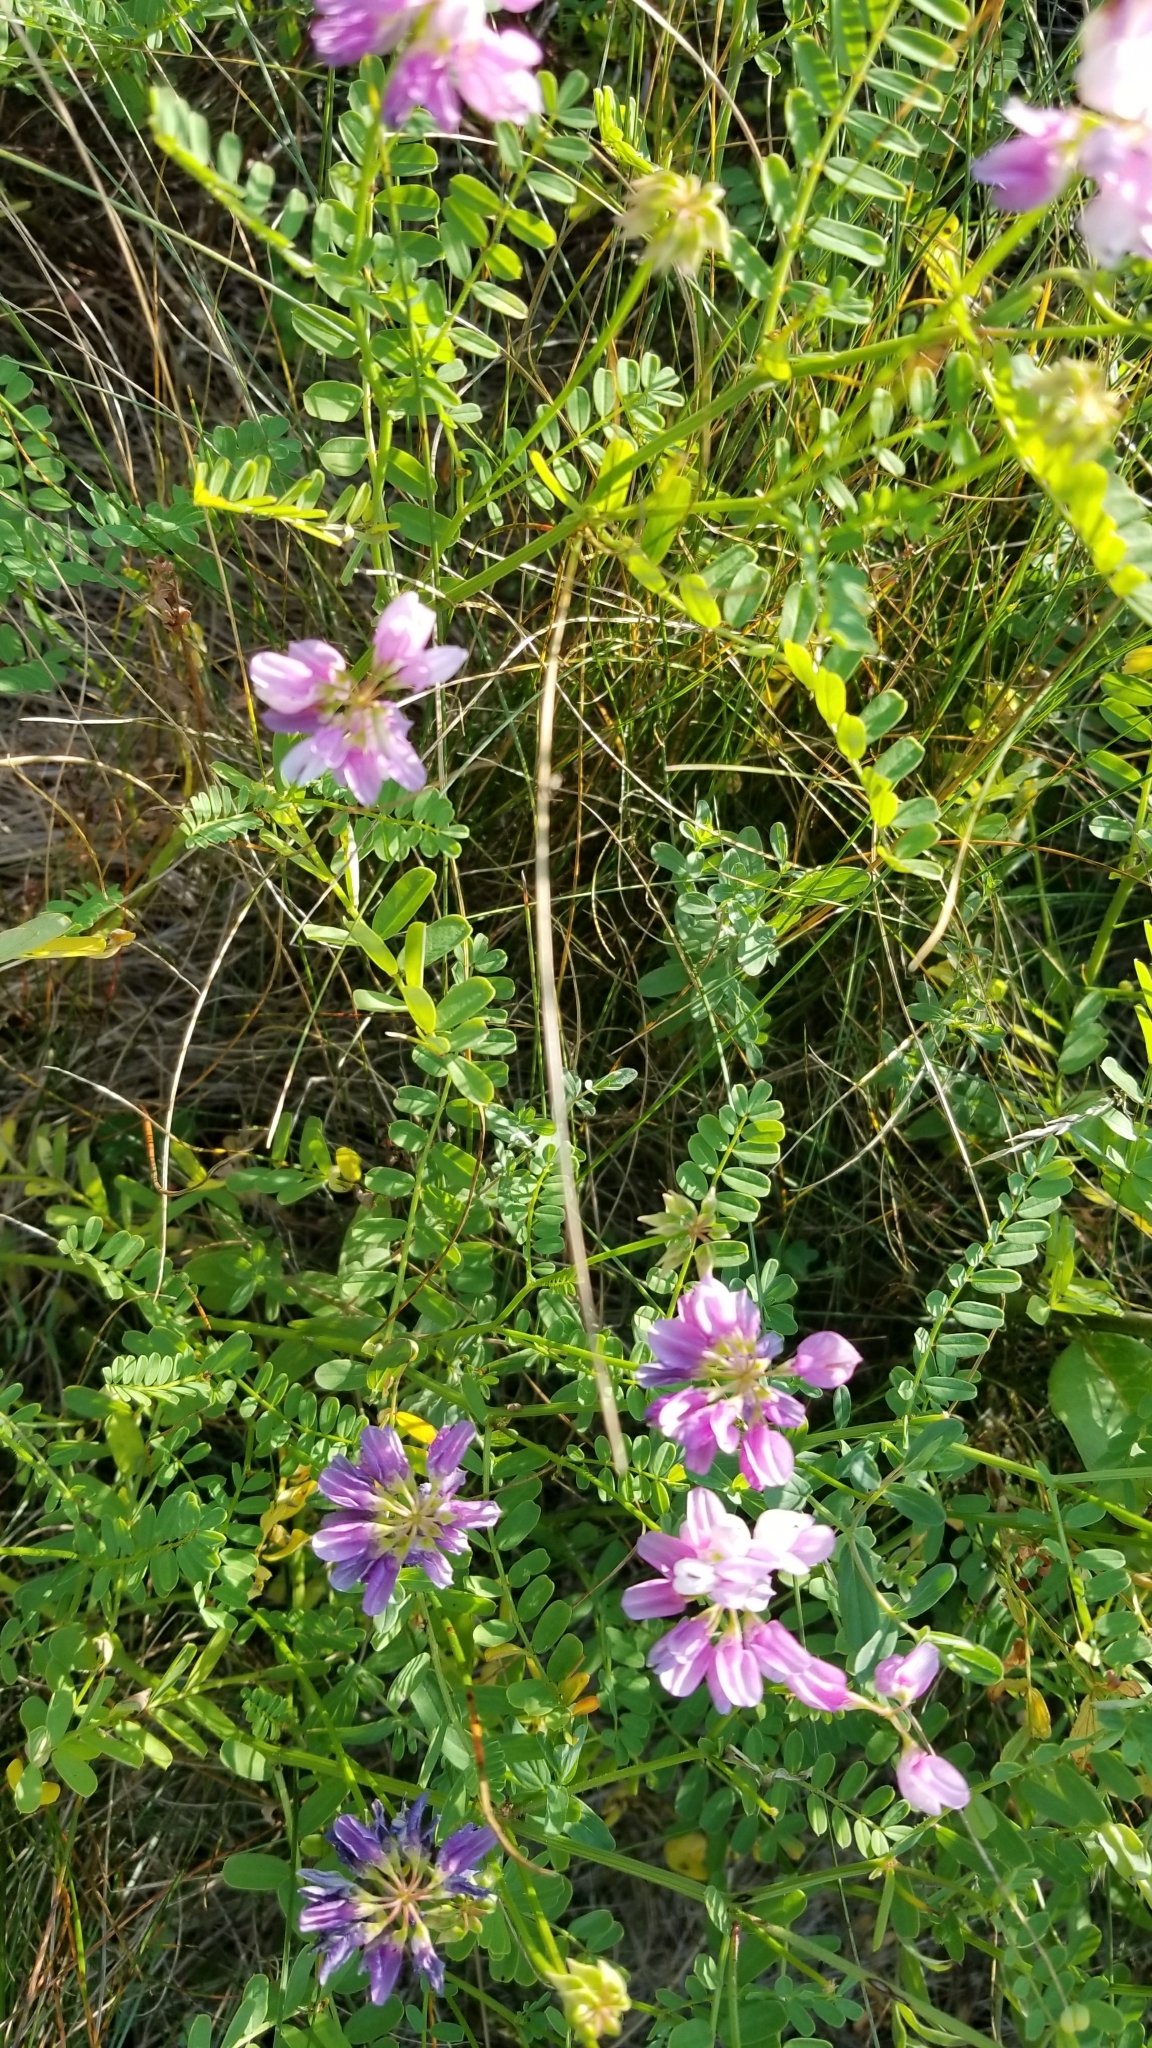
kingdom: Plantae
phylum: Tracheophyta
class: Magnoliopsida
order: Fabales
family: Fabaceae
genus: Coronilla
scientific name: Coronilla varia
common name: Crownvetch
